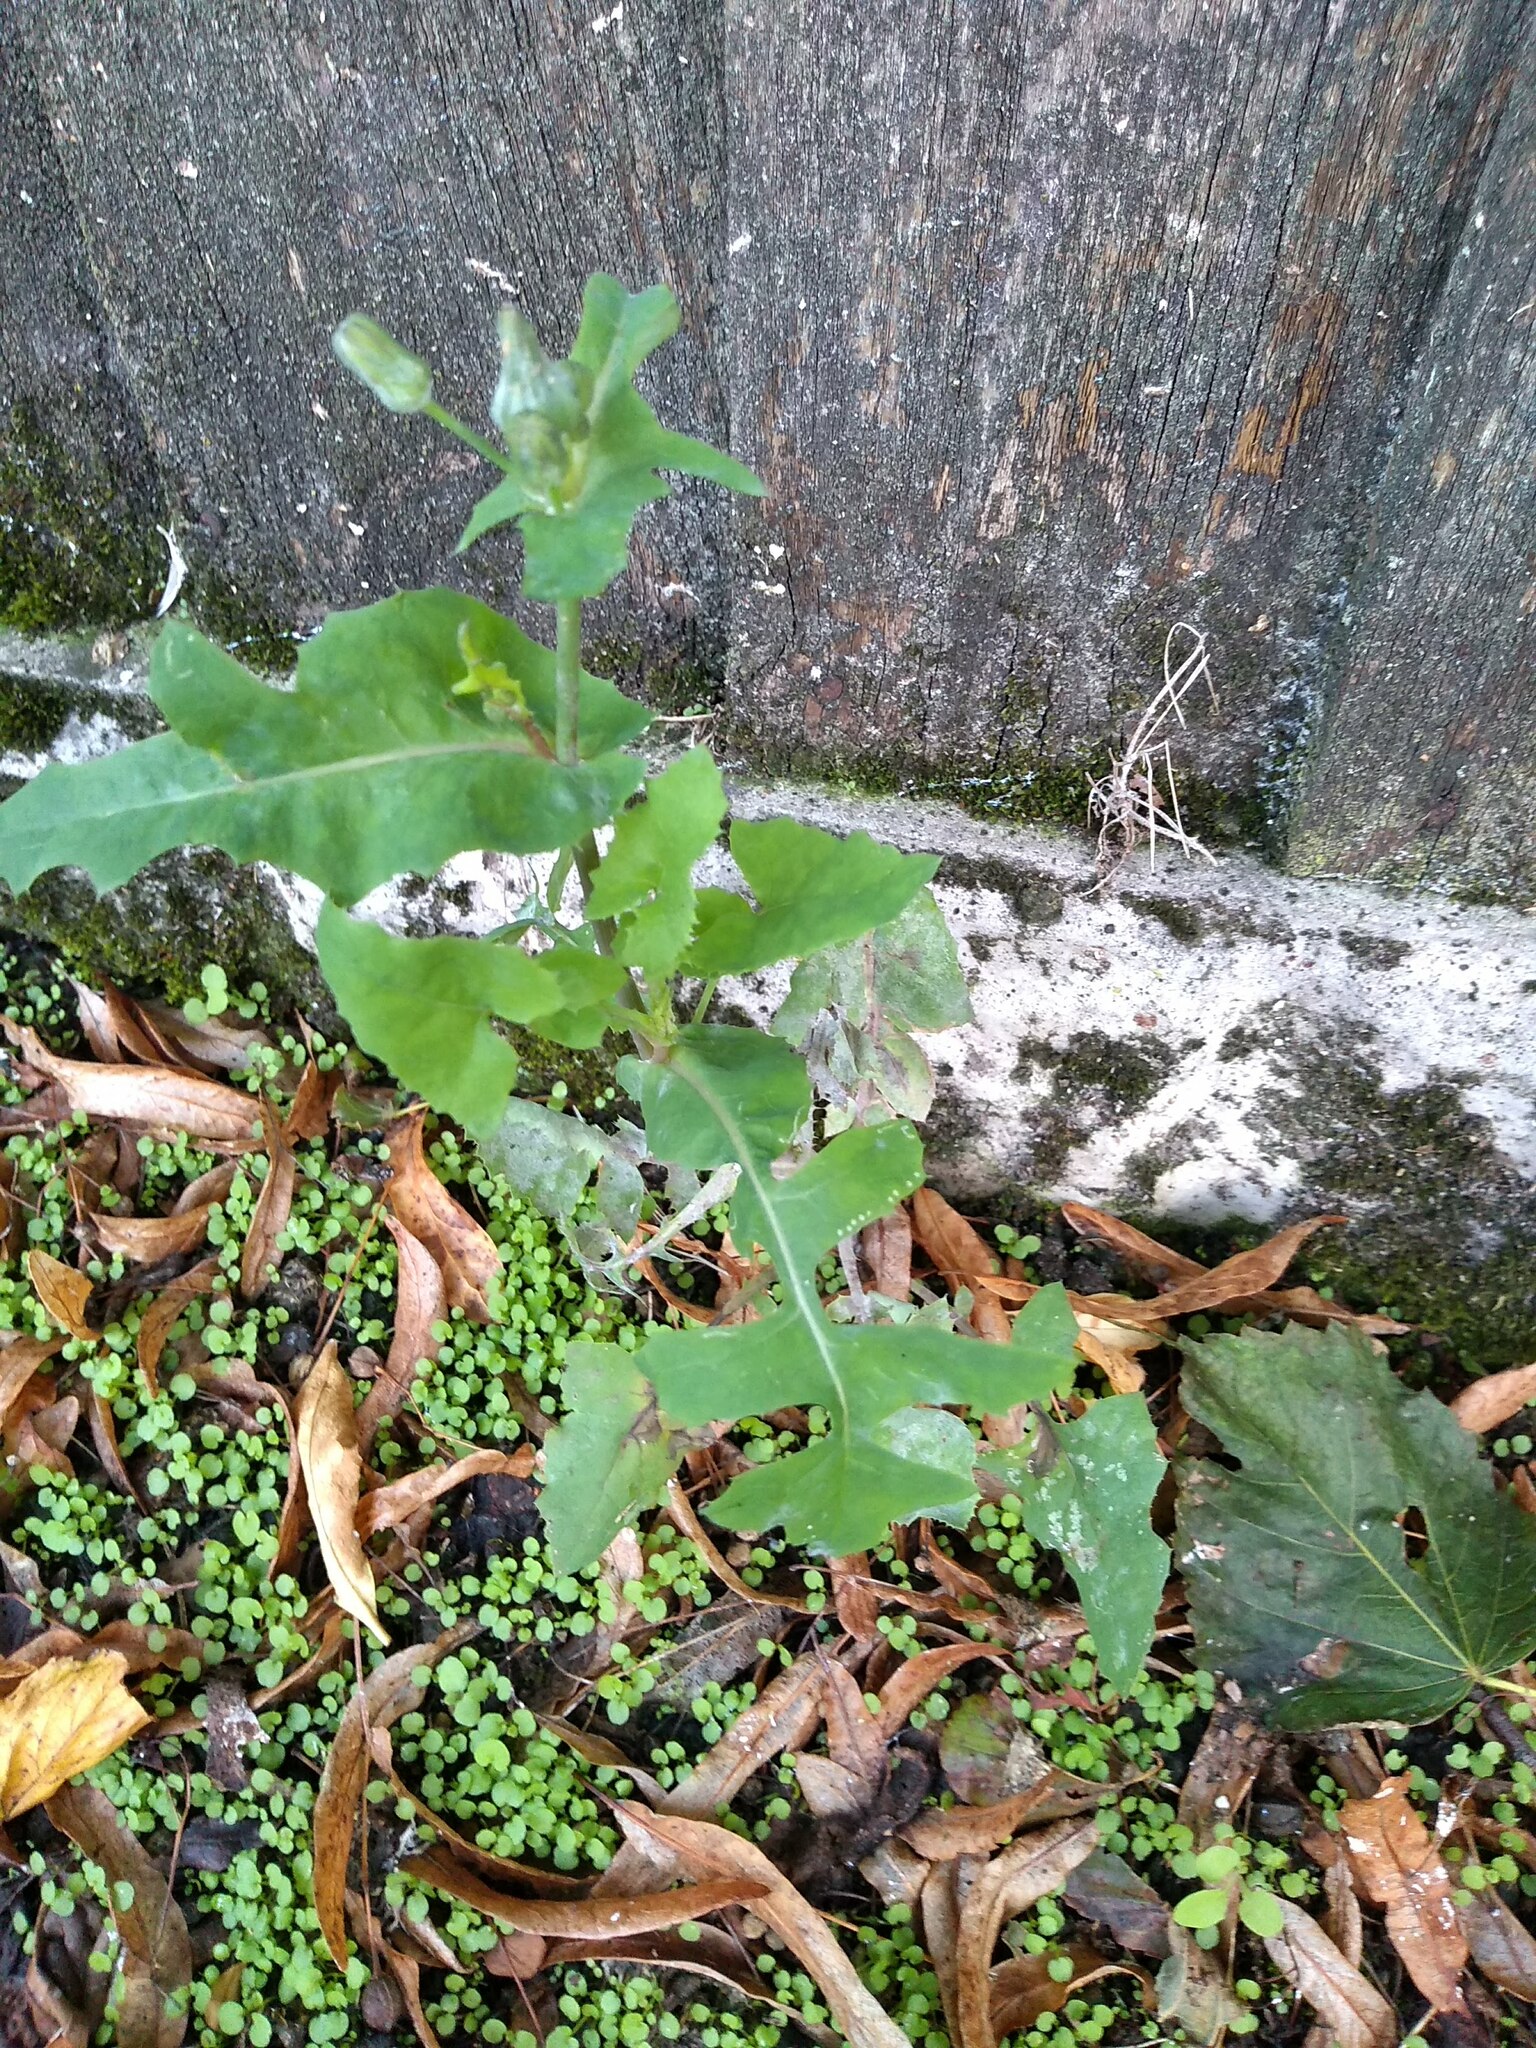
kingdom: Plantae
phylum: Tracheophyta
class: Magnoliopsida
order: Asterales
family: Asteraceae
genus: Sonchus
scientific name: Sonchus oleraceus
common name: Common sowthistle
